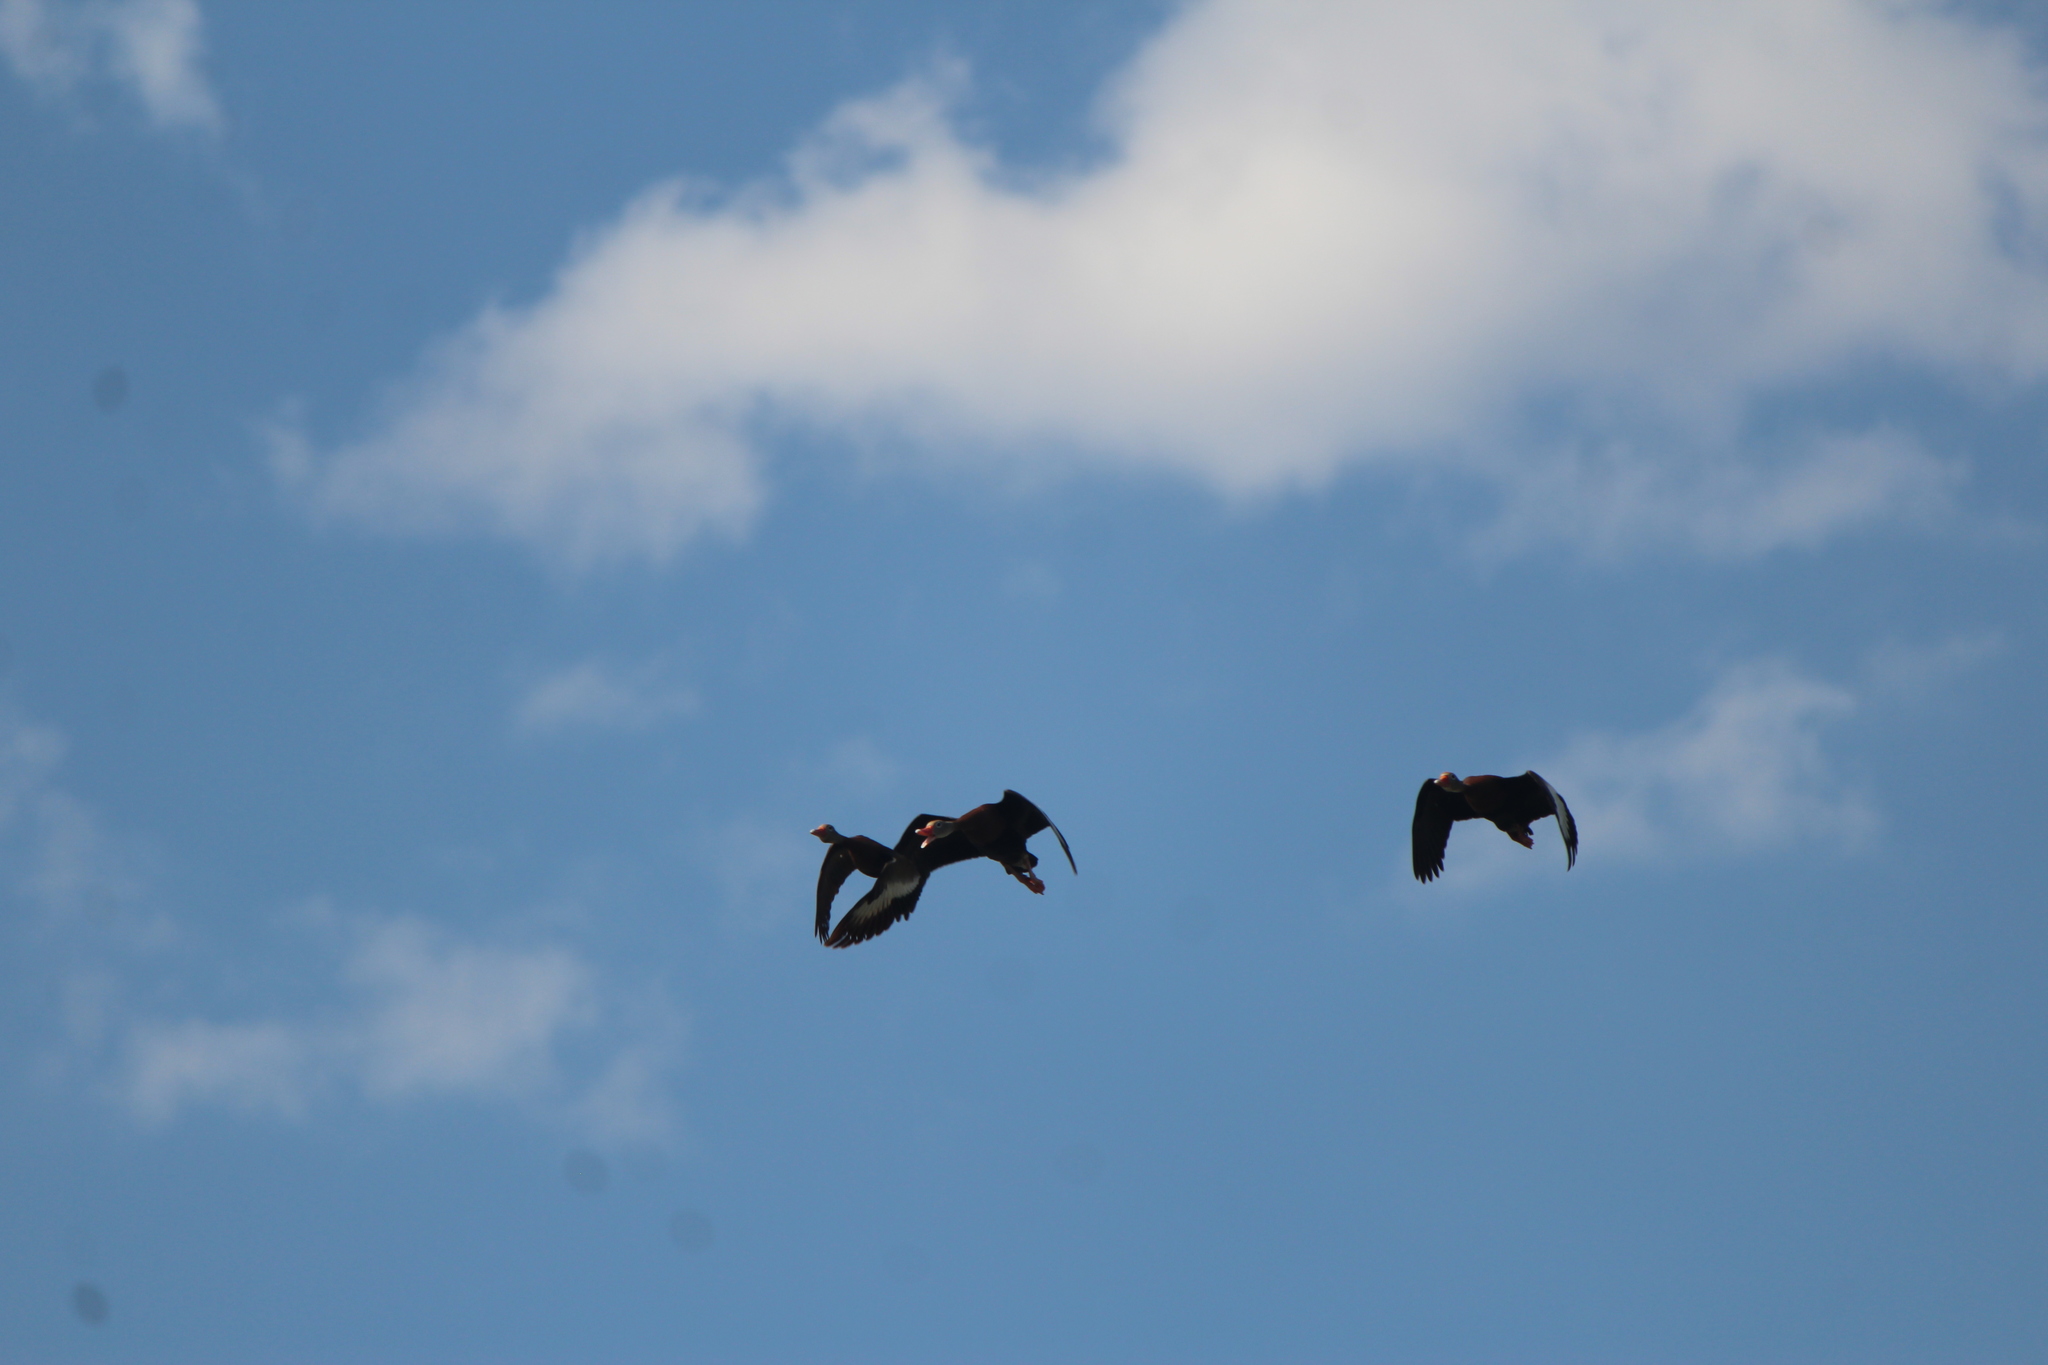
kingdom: Animalia
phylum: Chordata
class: Aves
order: Anseriformes
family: Anatidae
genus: Dendrocygna
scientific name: Dendrocygna autumnalis
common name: Black-bellied whistling duck
